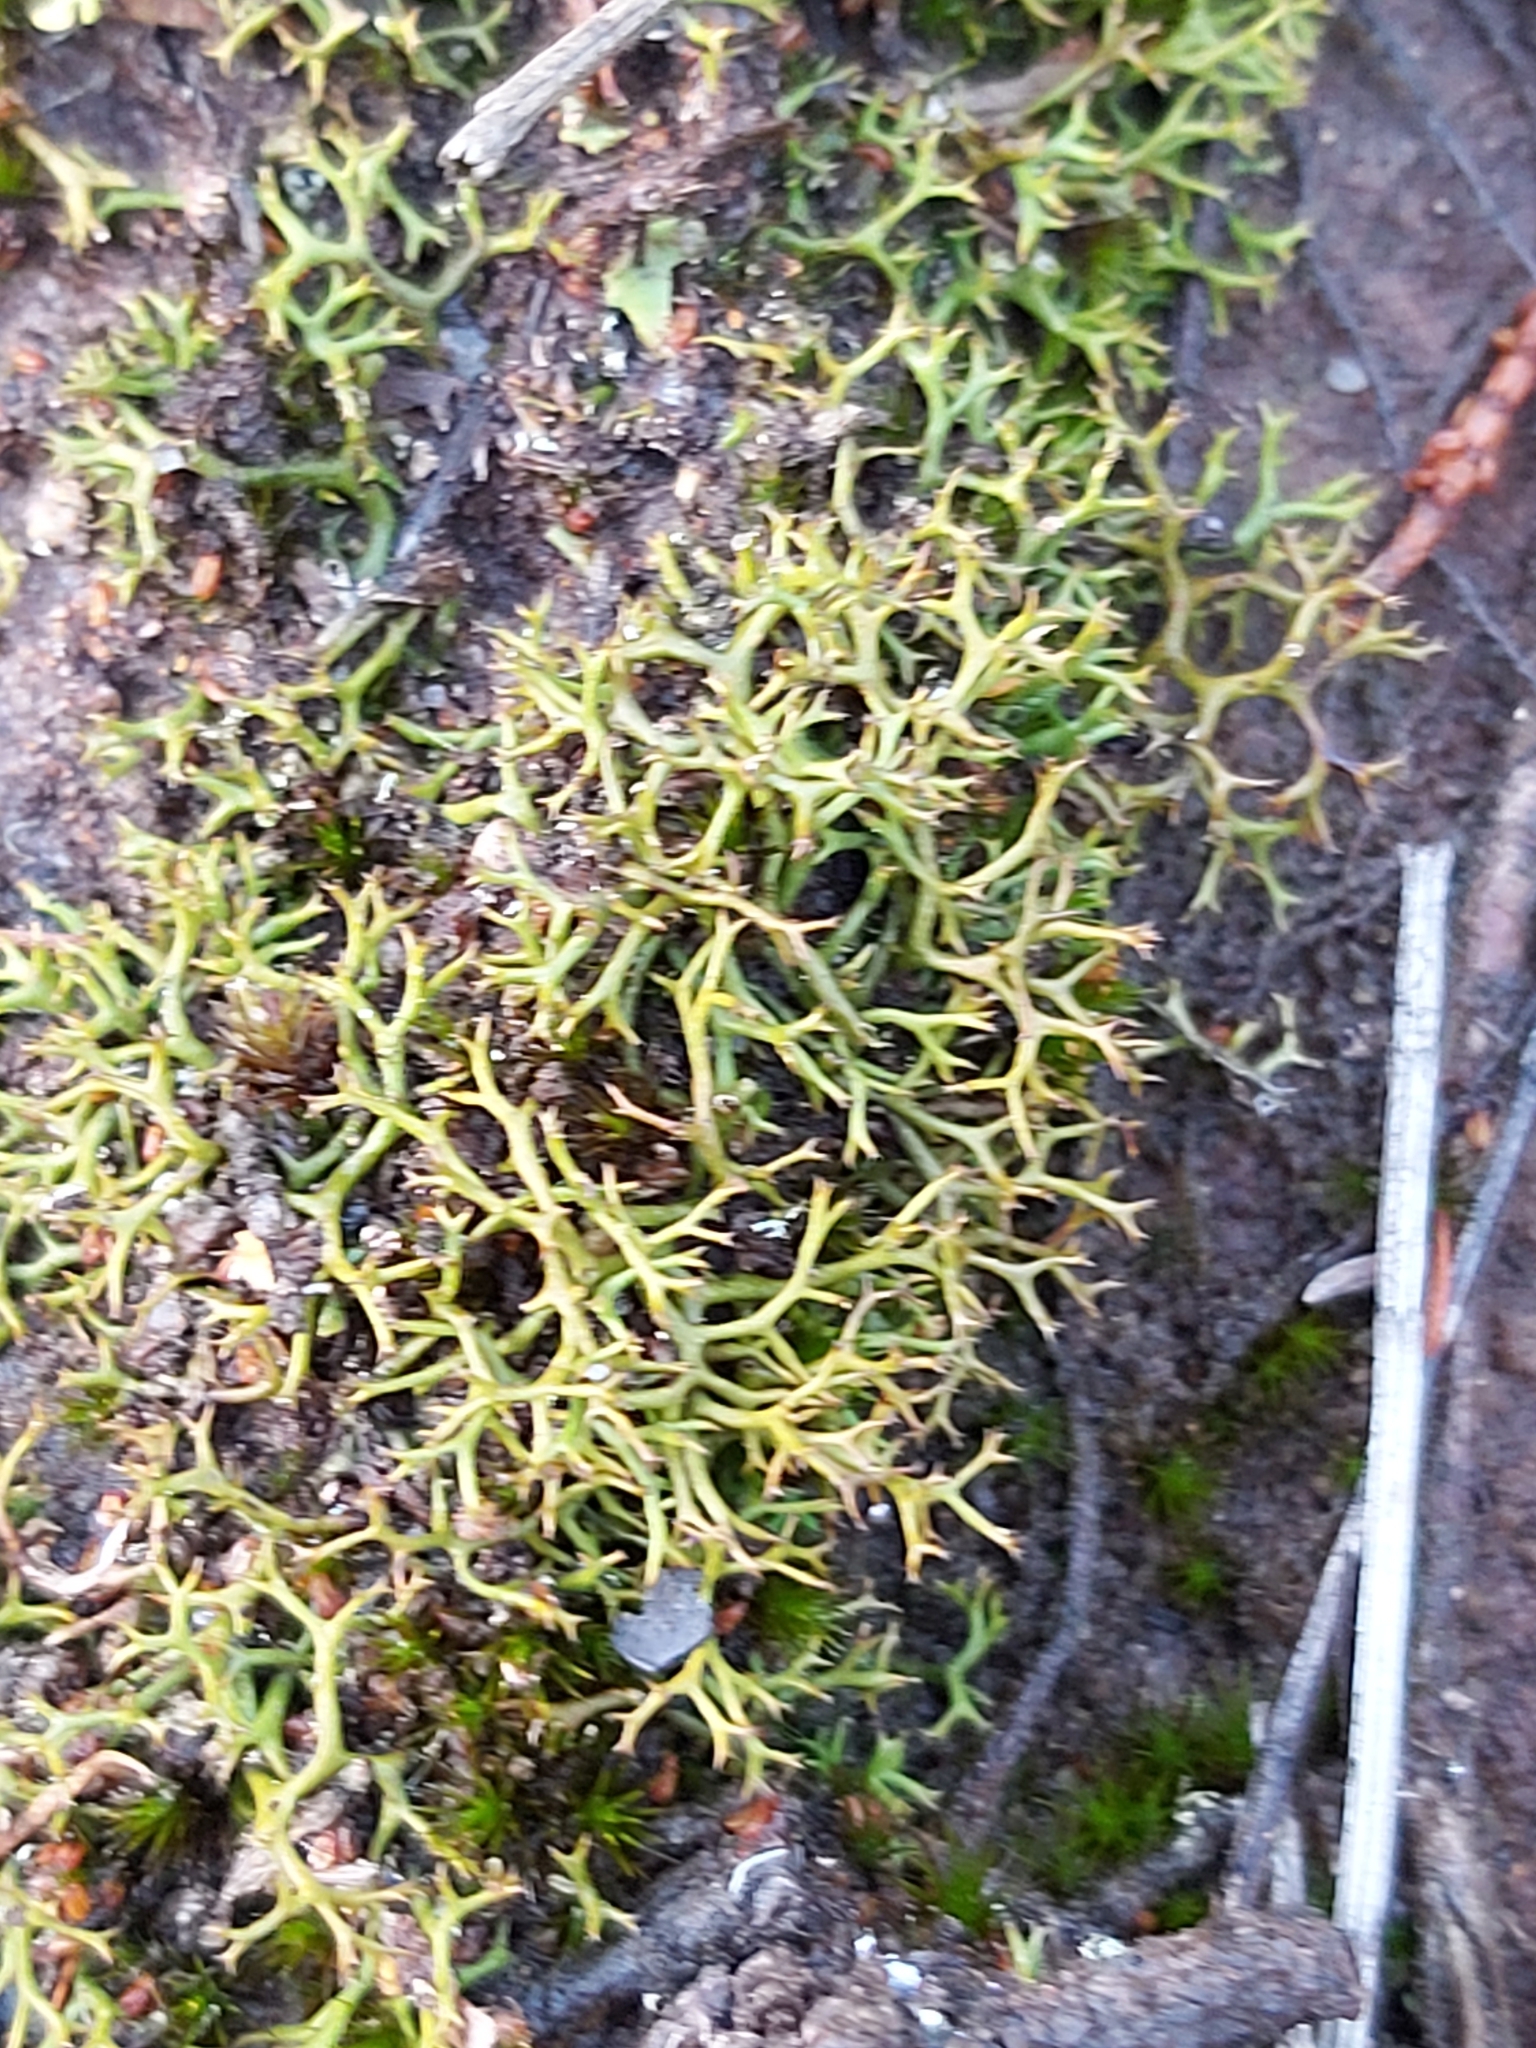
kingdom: Fungi
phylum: Ascomycota
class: Lecanoromycetes
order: Lecanorales
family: Cladoniaceae
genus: Cladia
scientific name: Cladia aggregata
